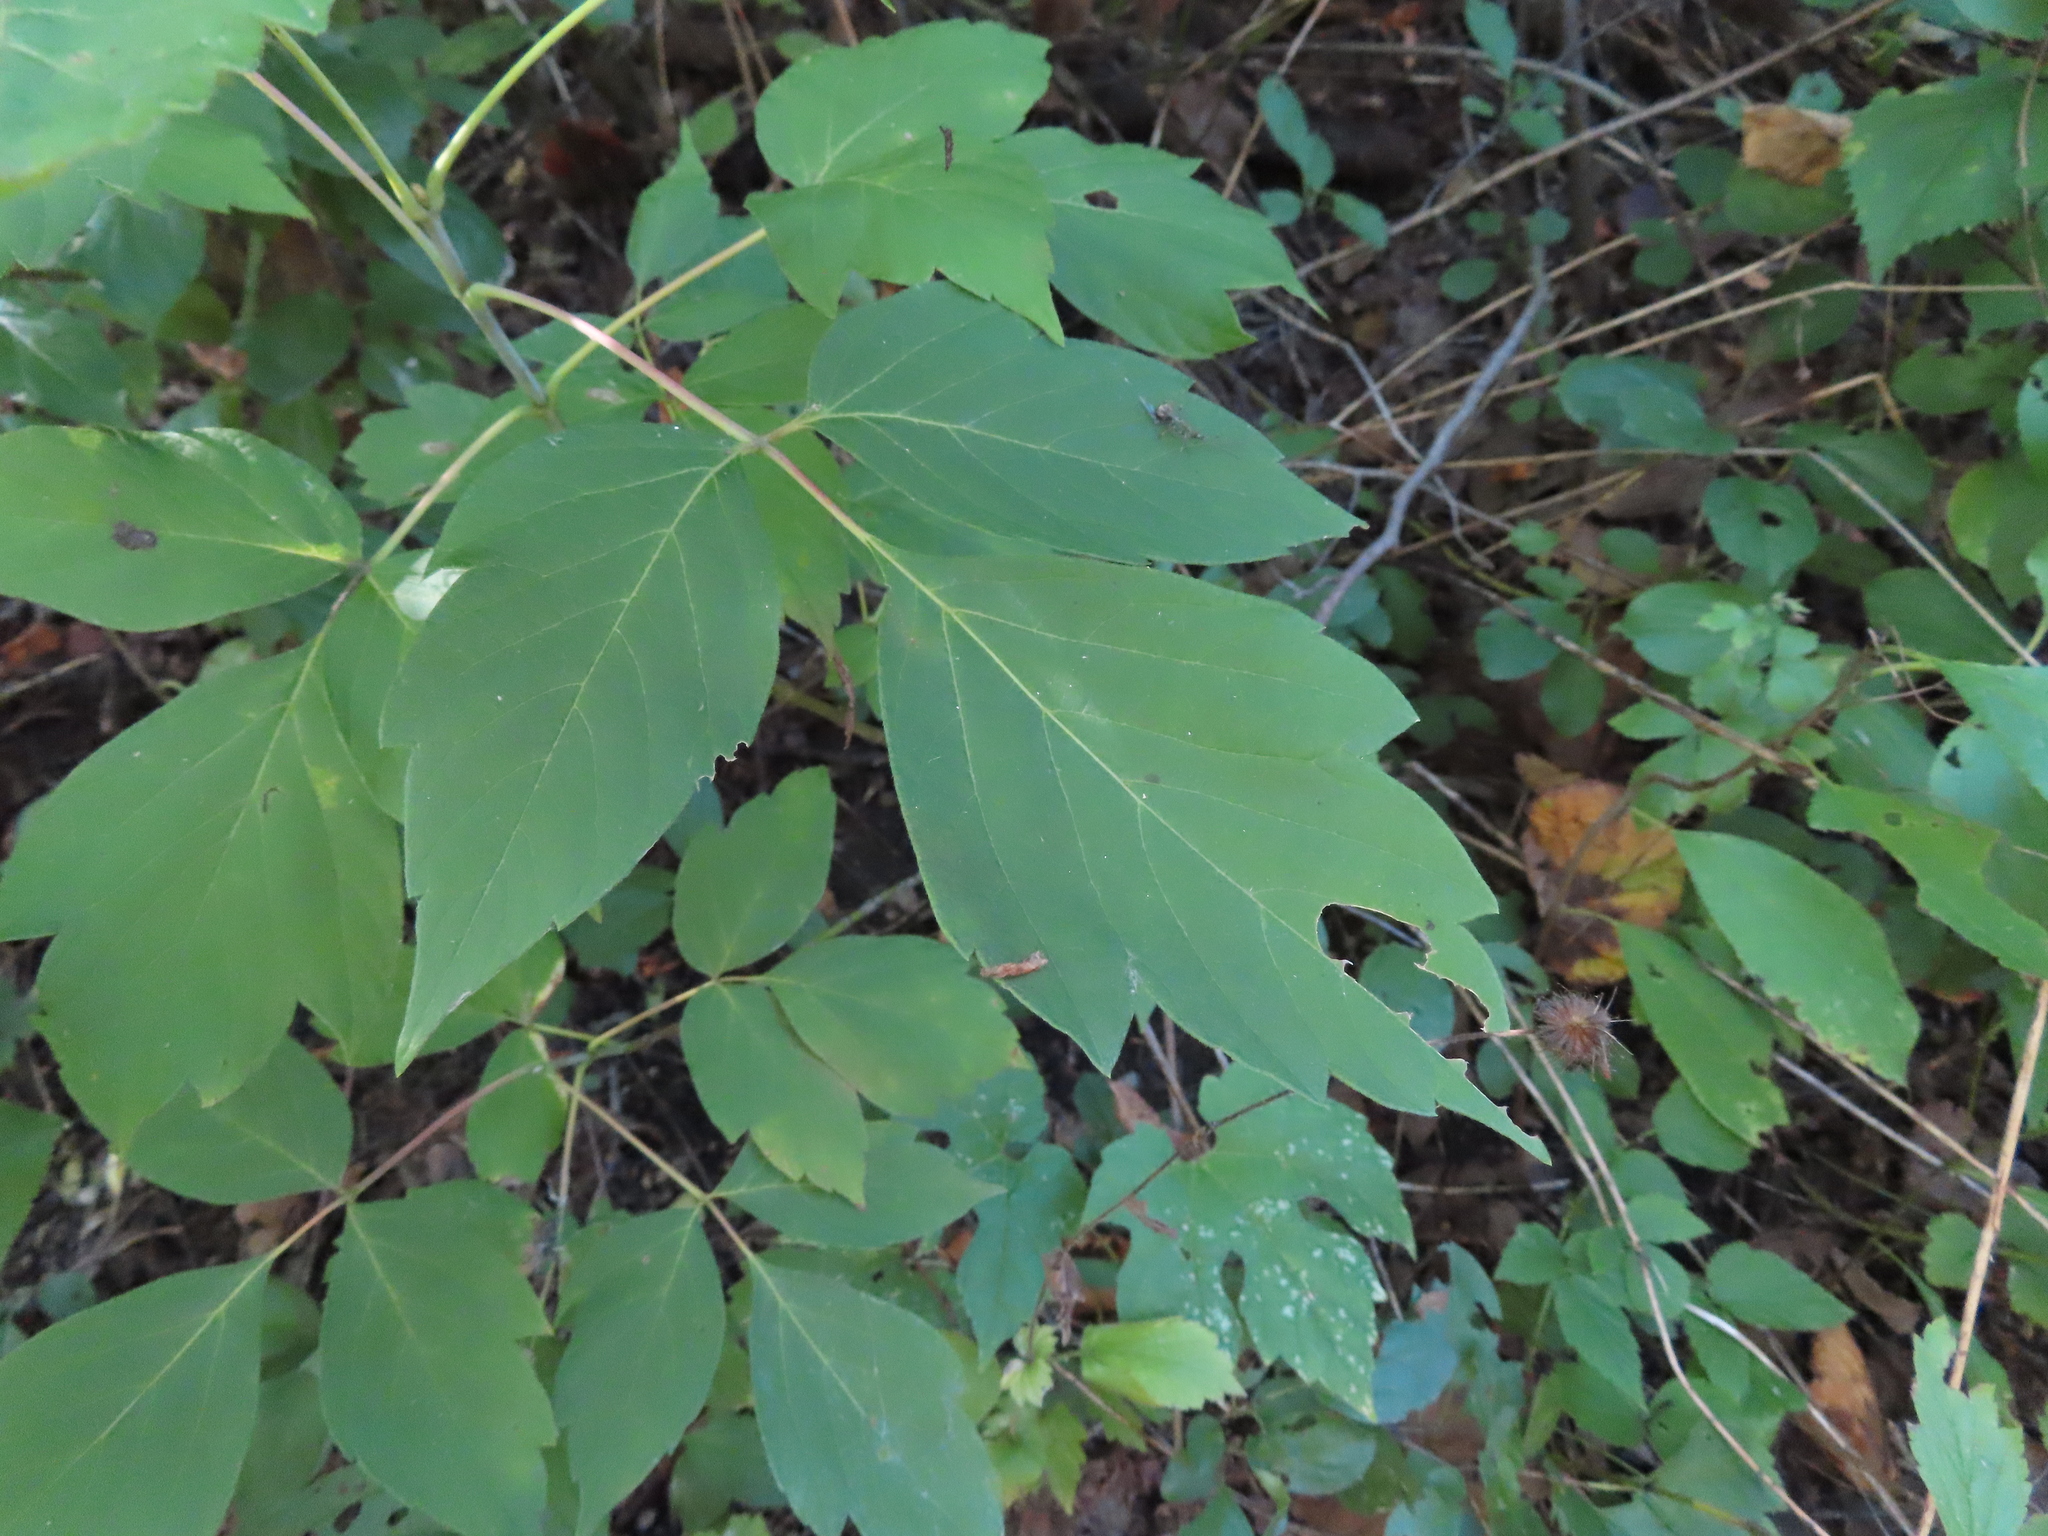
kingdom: Plantae
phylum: Tracheophyta
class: Magnoliopsida
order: Sapindales
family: Sapindaceae
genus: Acer
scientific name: Acer negundo
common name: Ashleaf maple
